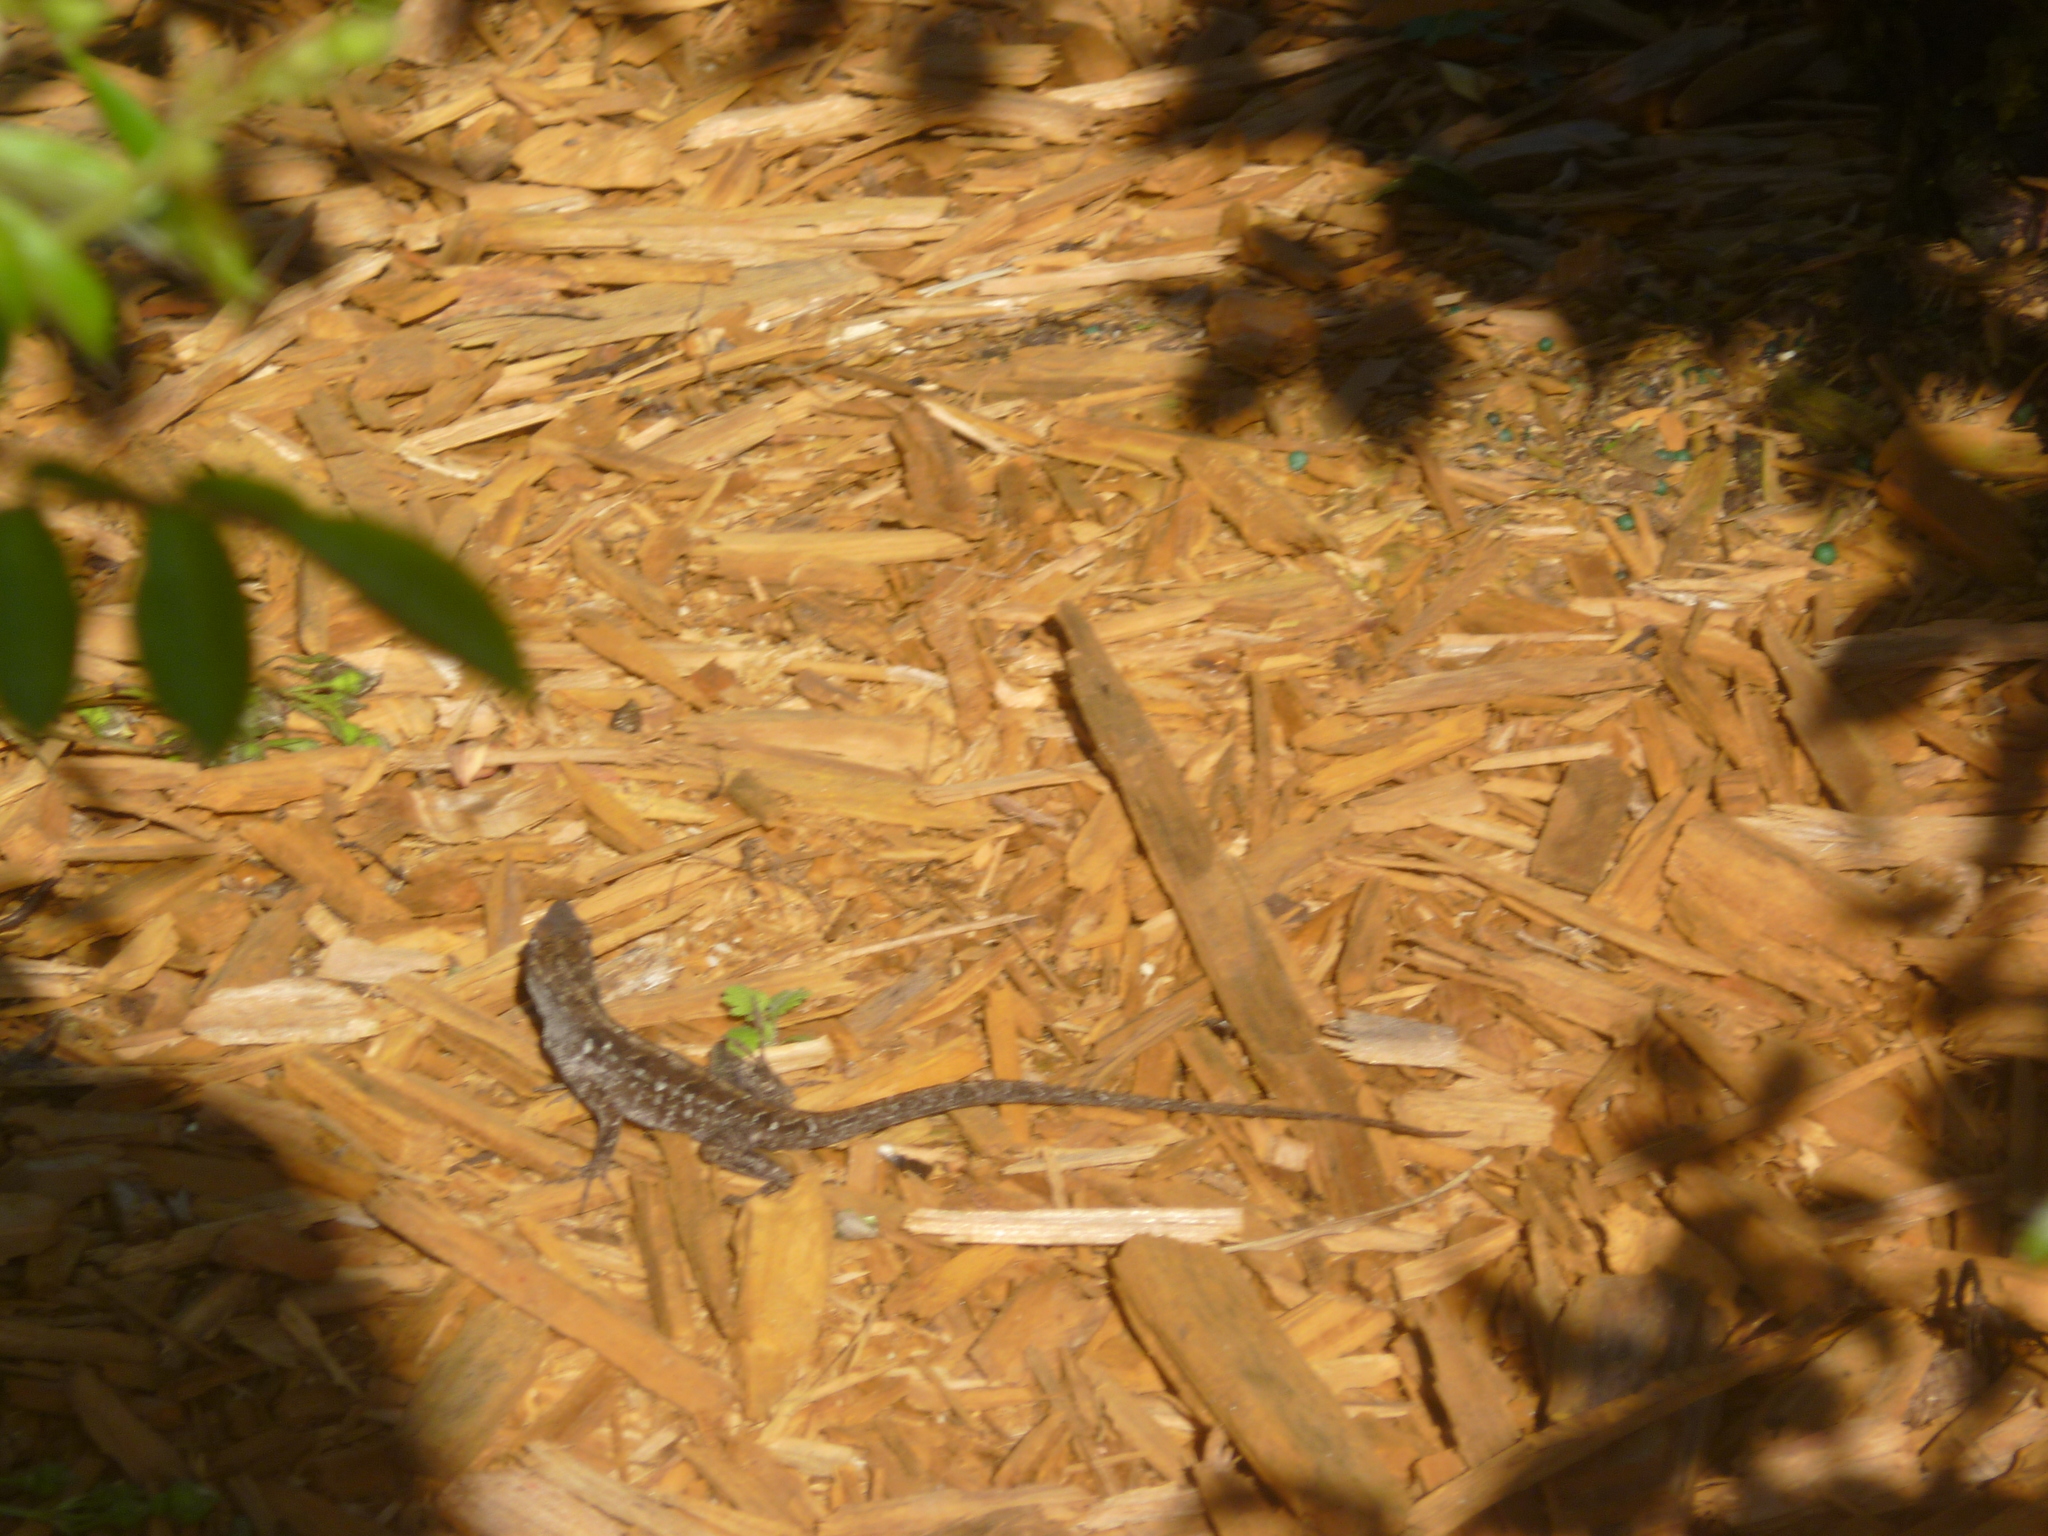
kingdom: Animalia
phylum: Chordata
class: Squamata
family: Dactyloidae
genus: Anolis
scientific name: Anolis sagrei
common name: Brown anole
